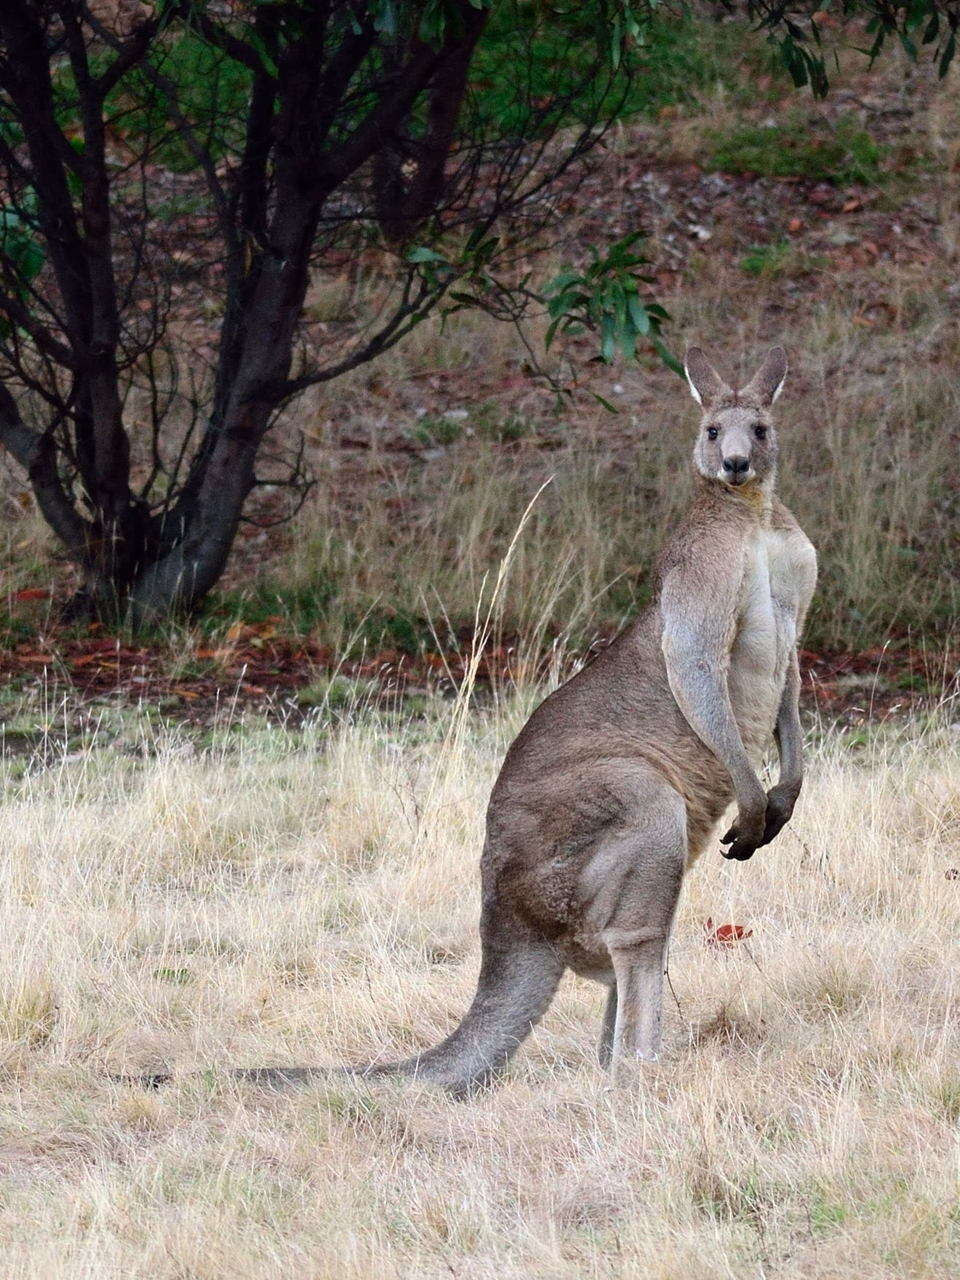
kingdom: Animalia
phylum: Chordata
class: Mammalia
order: Diprotodontia
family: Macropodidae
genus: Macropus
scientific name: Macropus giganteus
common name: Eastern grey kangaroo
